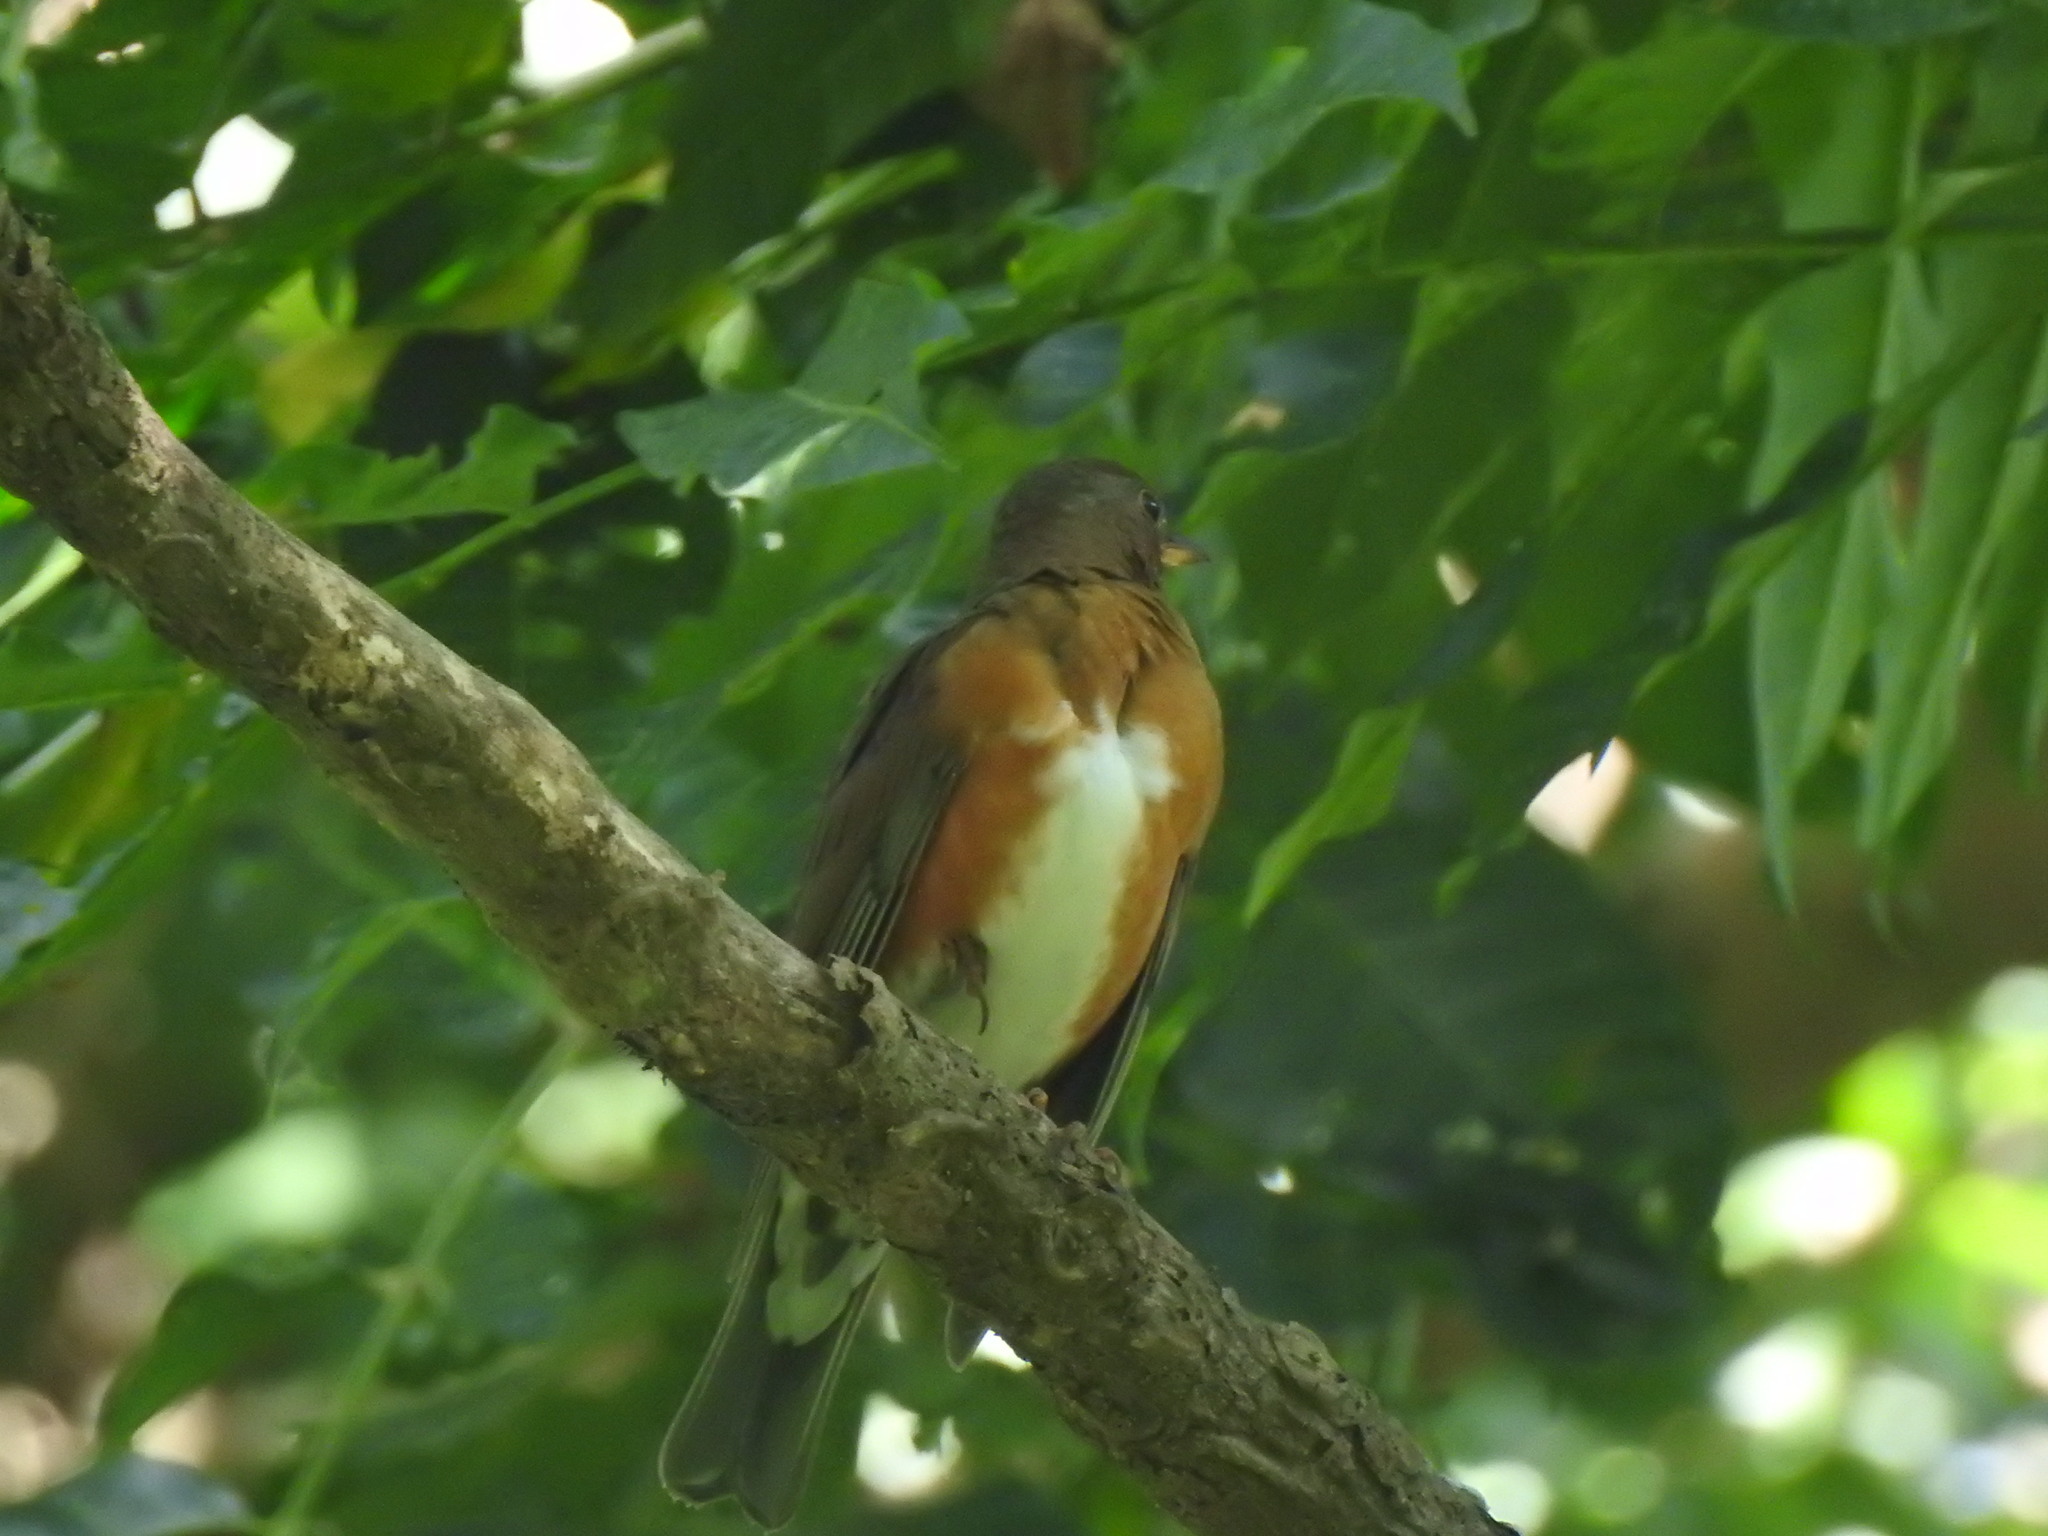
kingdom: Animalia
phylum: Chordata
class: Aves
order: Passeriformes
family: Turdidae
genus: Turdus
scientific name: Turdus chrysolaus
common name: Brown-headed thrush
